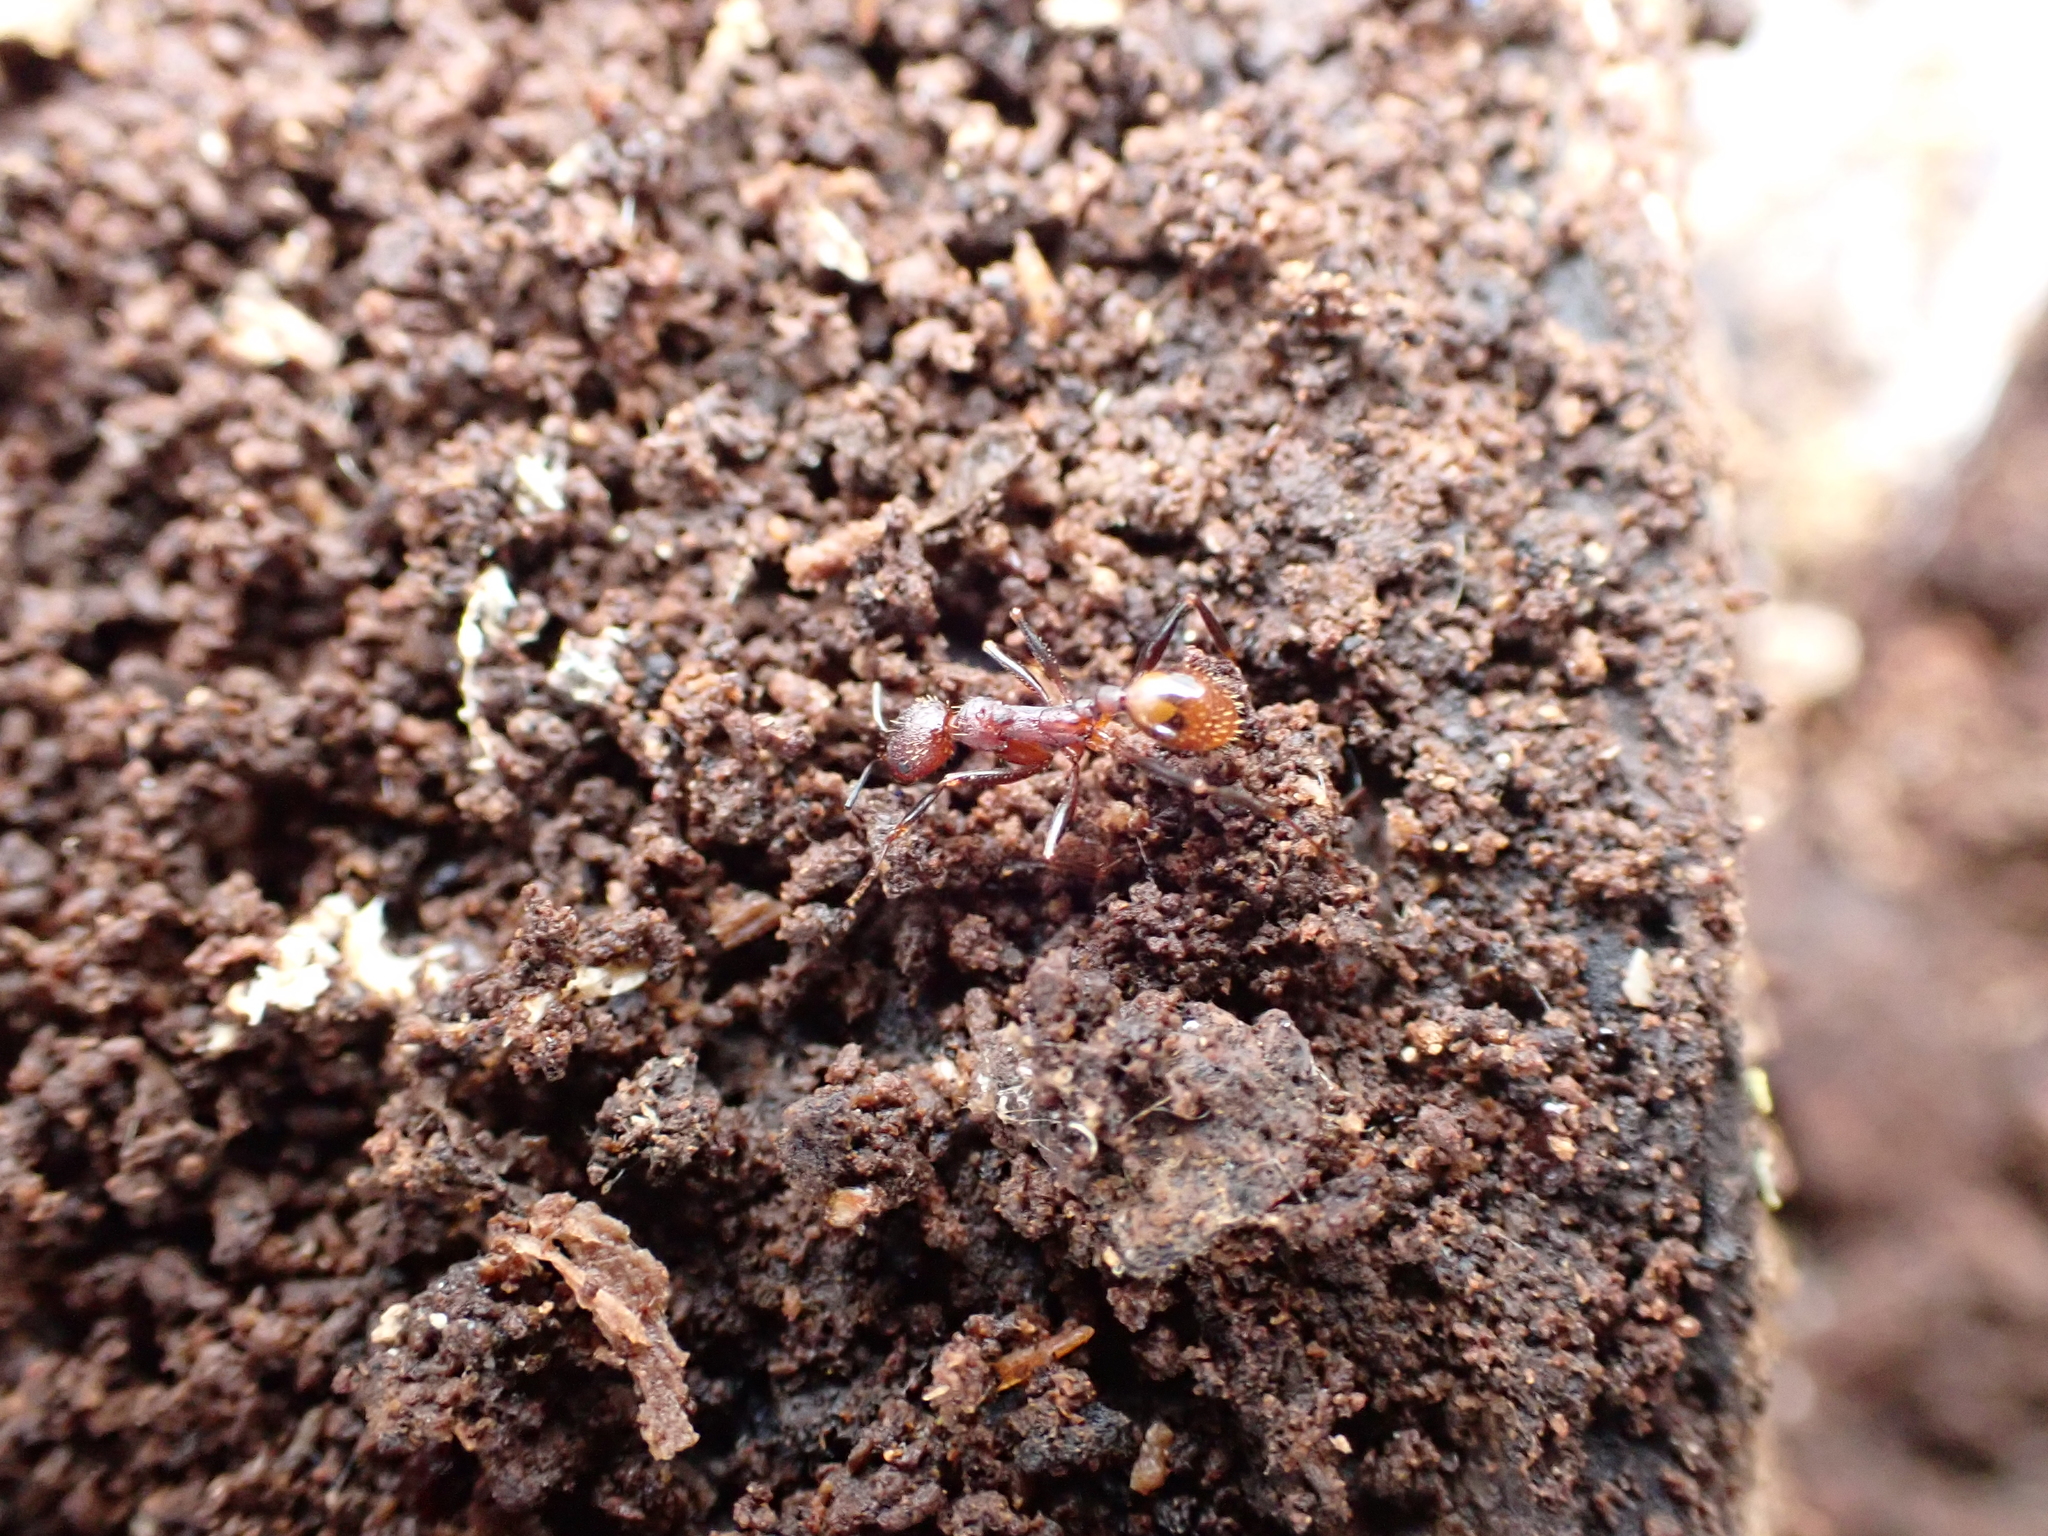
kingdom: Animalia
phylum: Arthropoda
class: Insecta
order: Hymenoptera
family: Formicidae
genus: Aphaenogaster
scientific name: Aphaenogaster fulva
